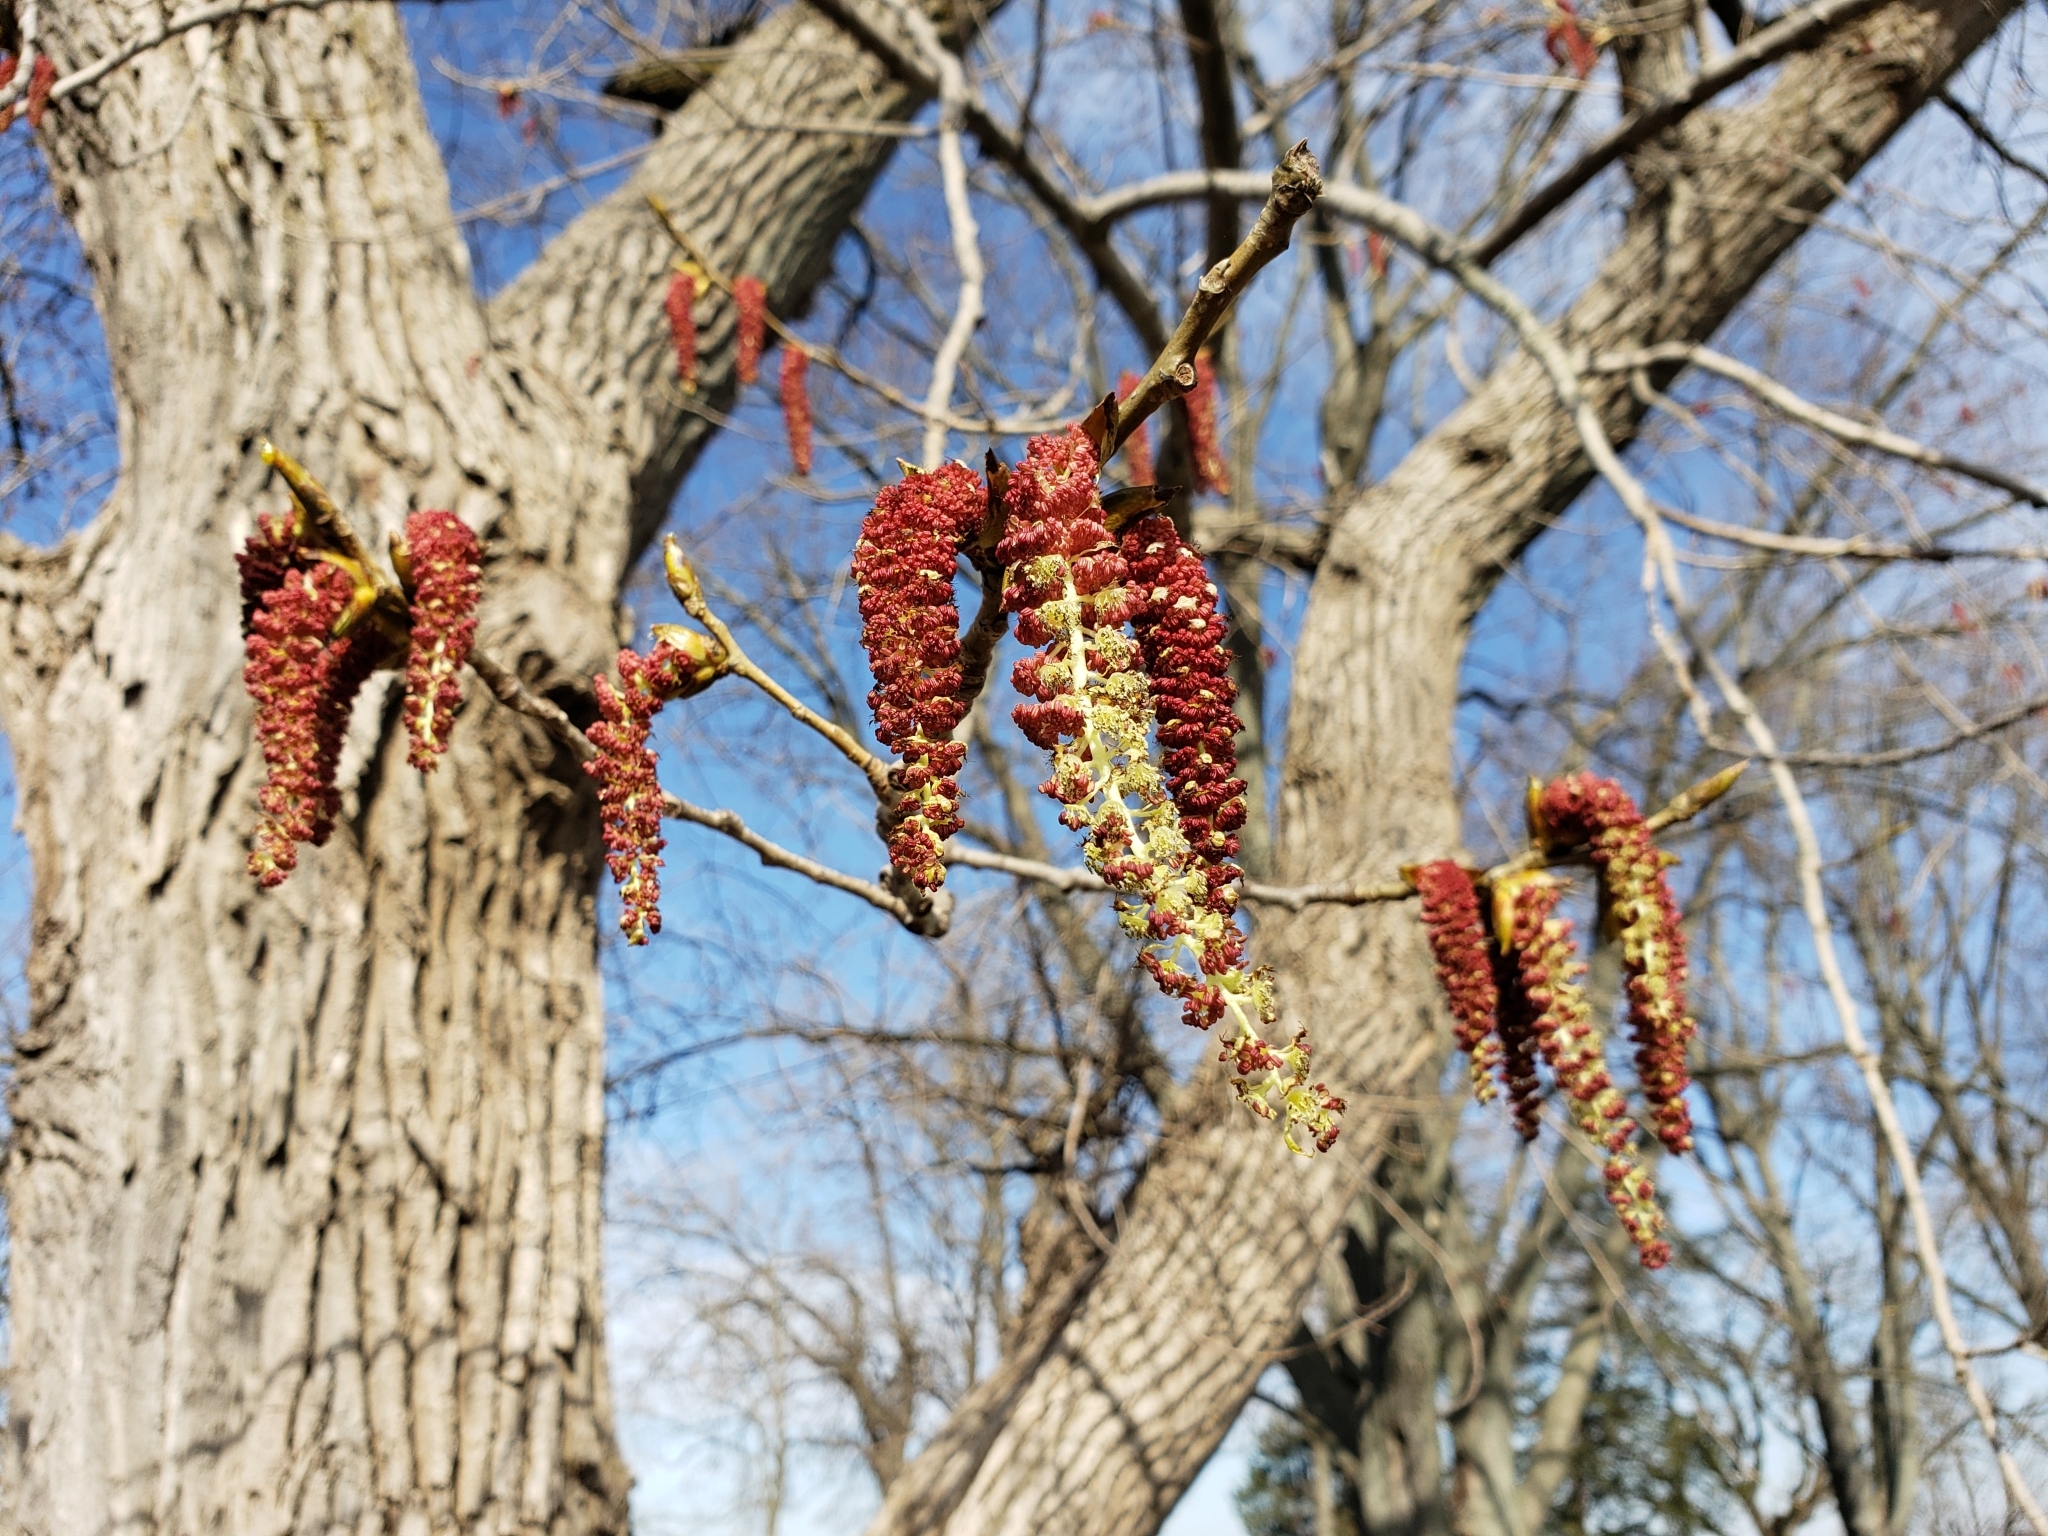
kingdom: Plantae
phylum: Tracheophyta
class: Magnoliopsida
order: Malpighiales
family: Salicaceae
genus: Populus
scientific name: Populus deltoides
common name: Eastern cottonwood
